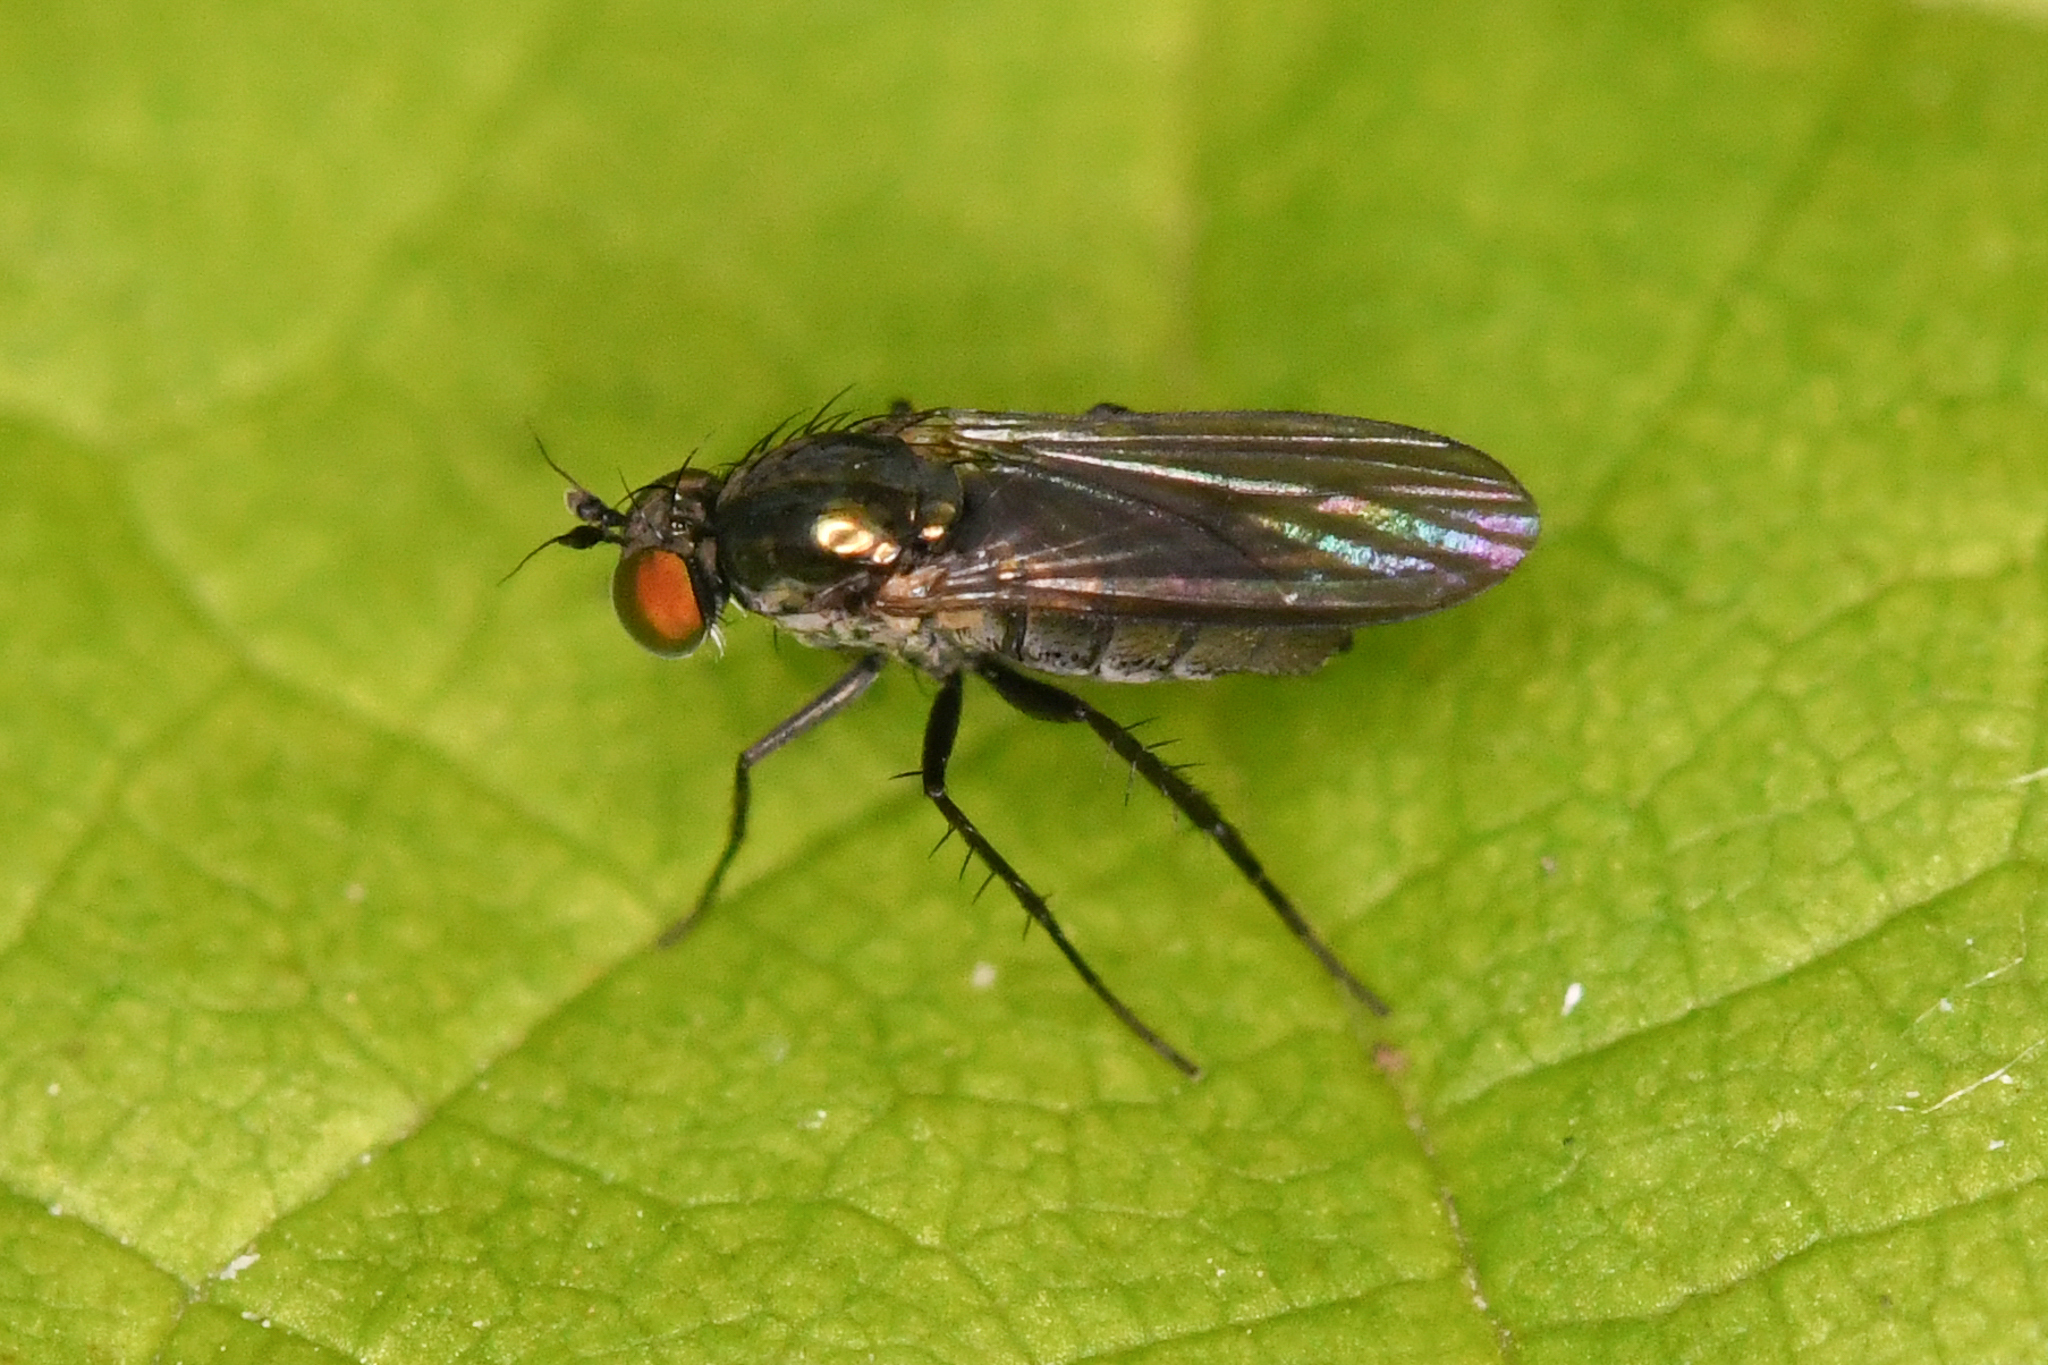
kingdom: Animalia
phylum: Arthropoda
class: Insecta
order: Diptera
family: Dolichopodidae
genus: Hercostomus
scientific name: Hercostomus unicolor
